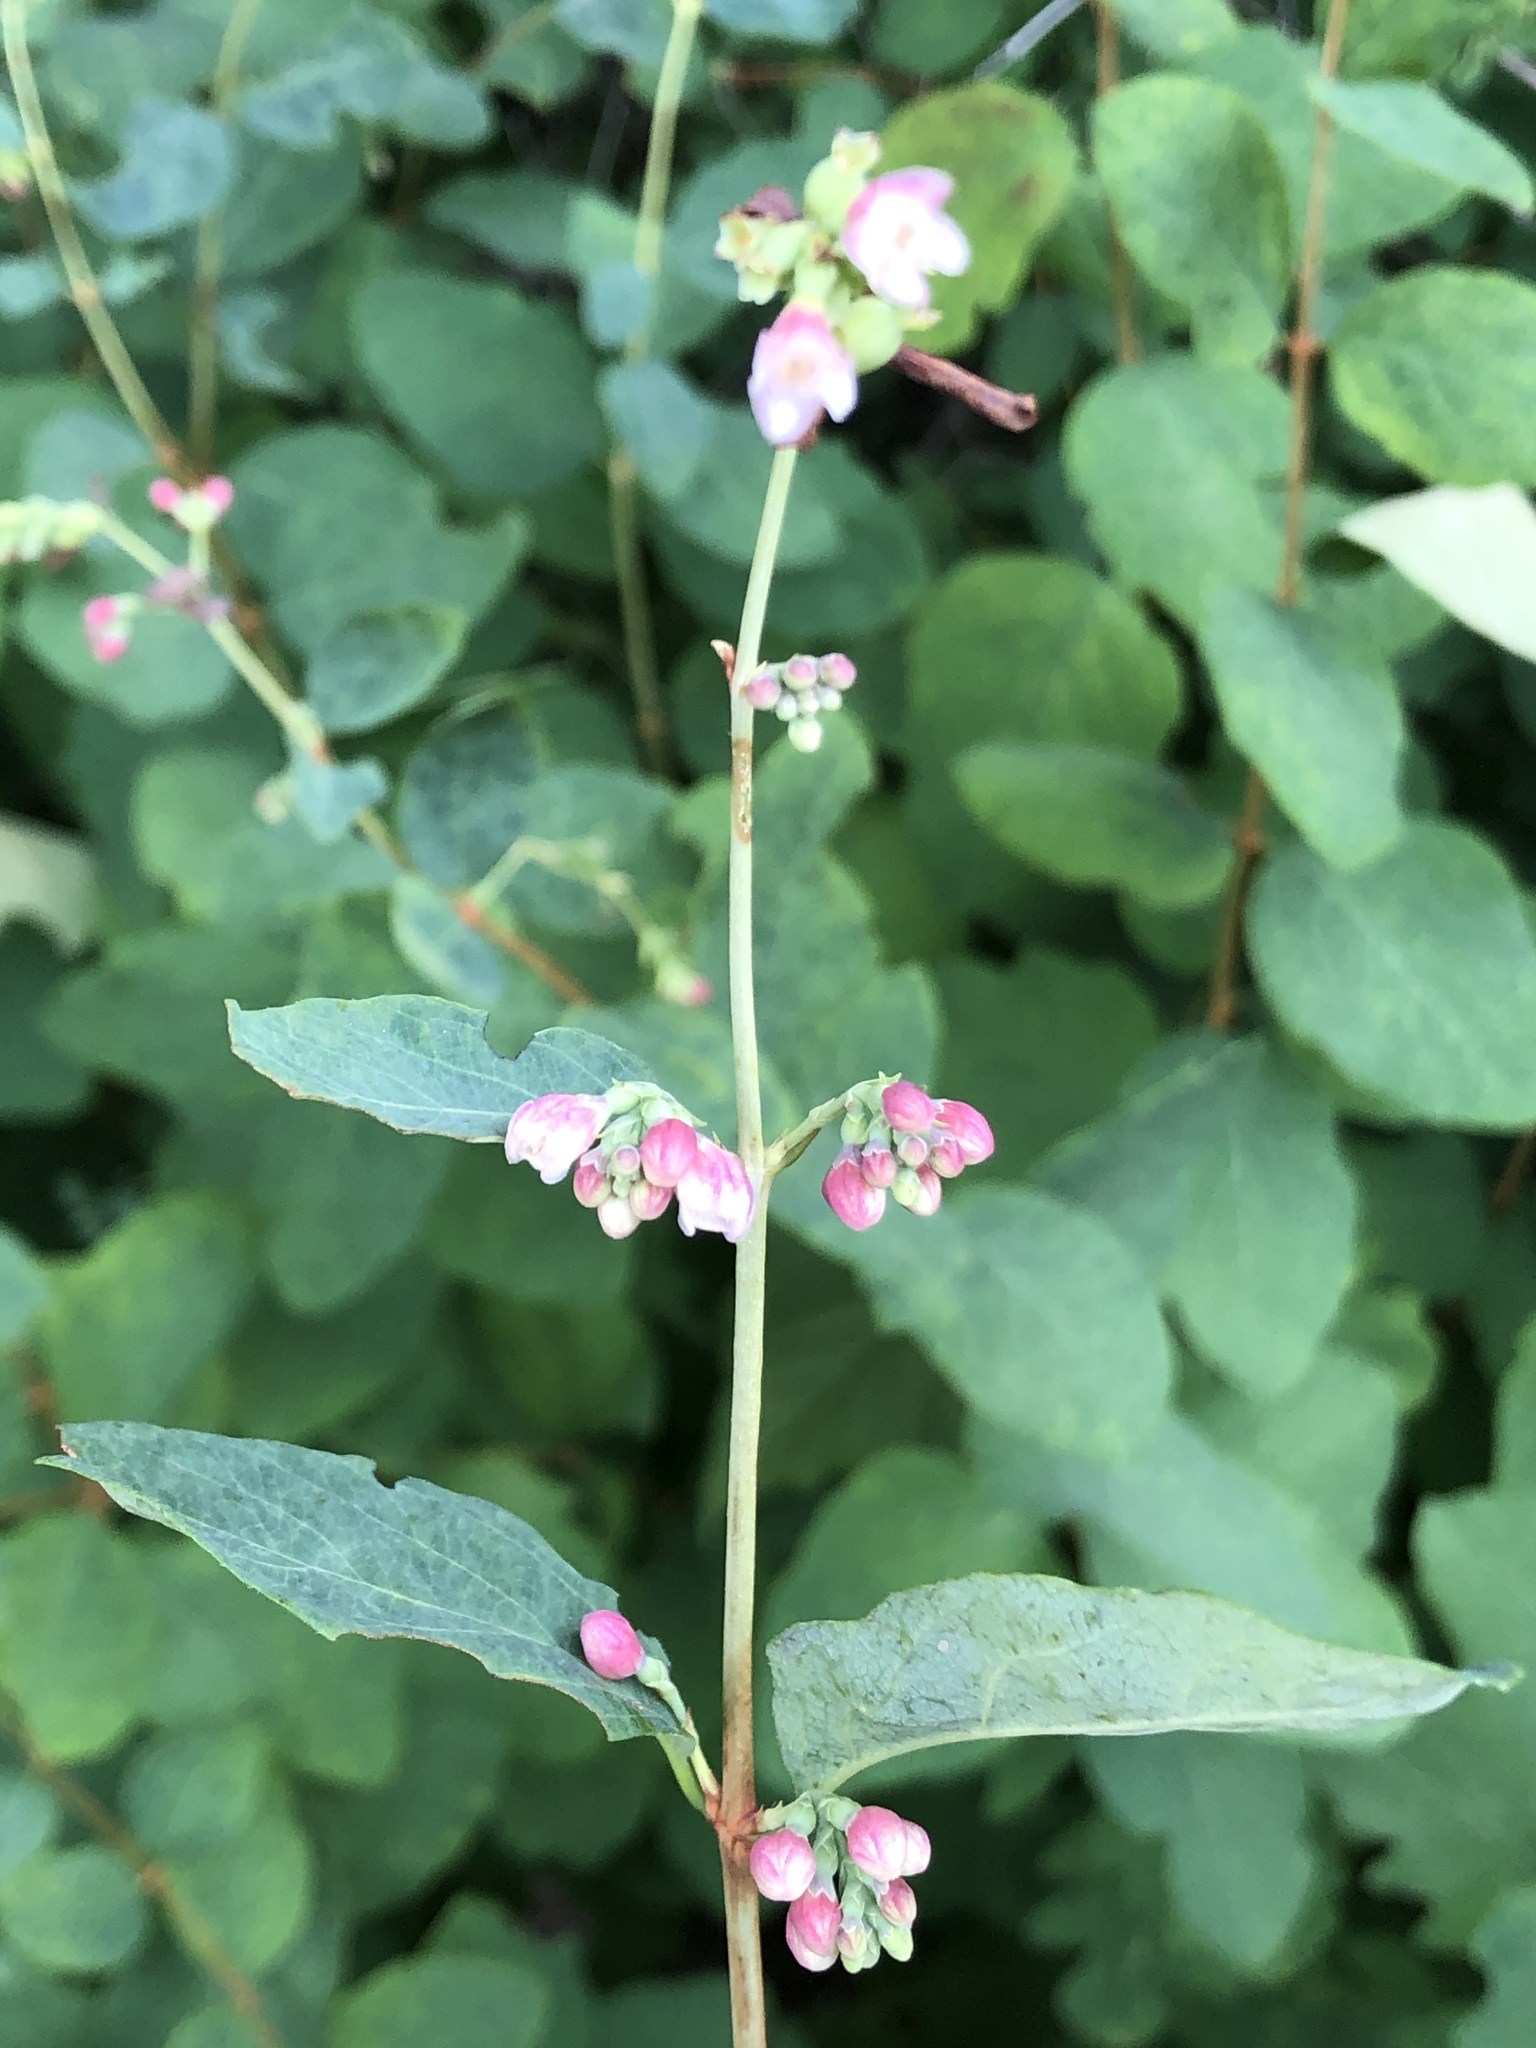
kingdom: Plantae
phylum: Tracheophyta
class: Magnoliopsida
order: Dipsacales
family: Caprifoliaceae
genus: Symphoricarpos
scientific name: Symphoricarpos albus
